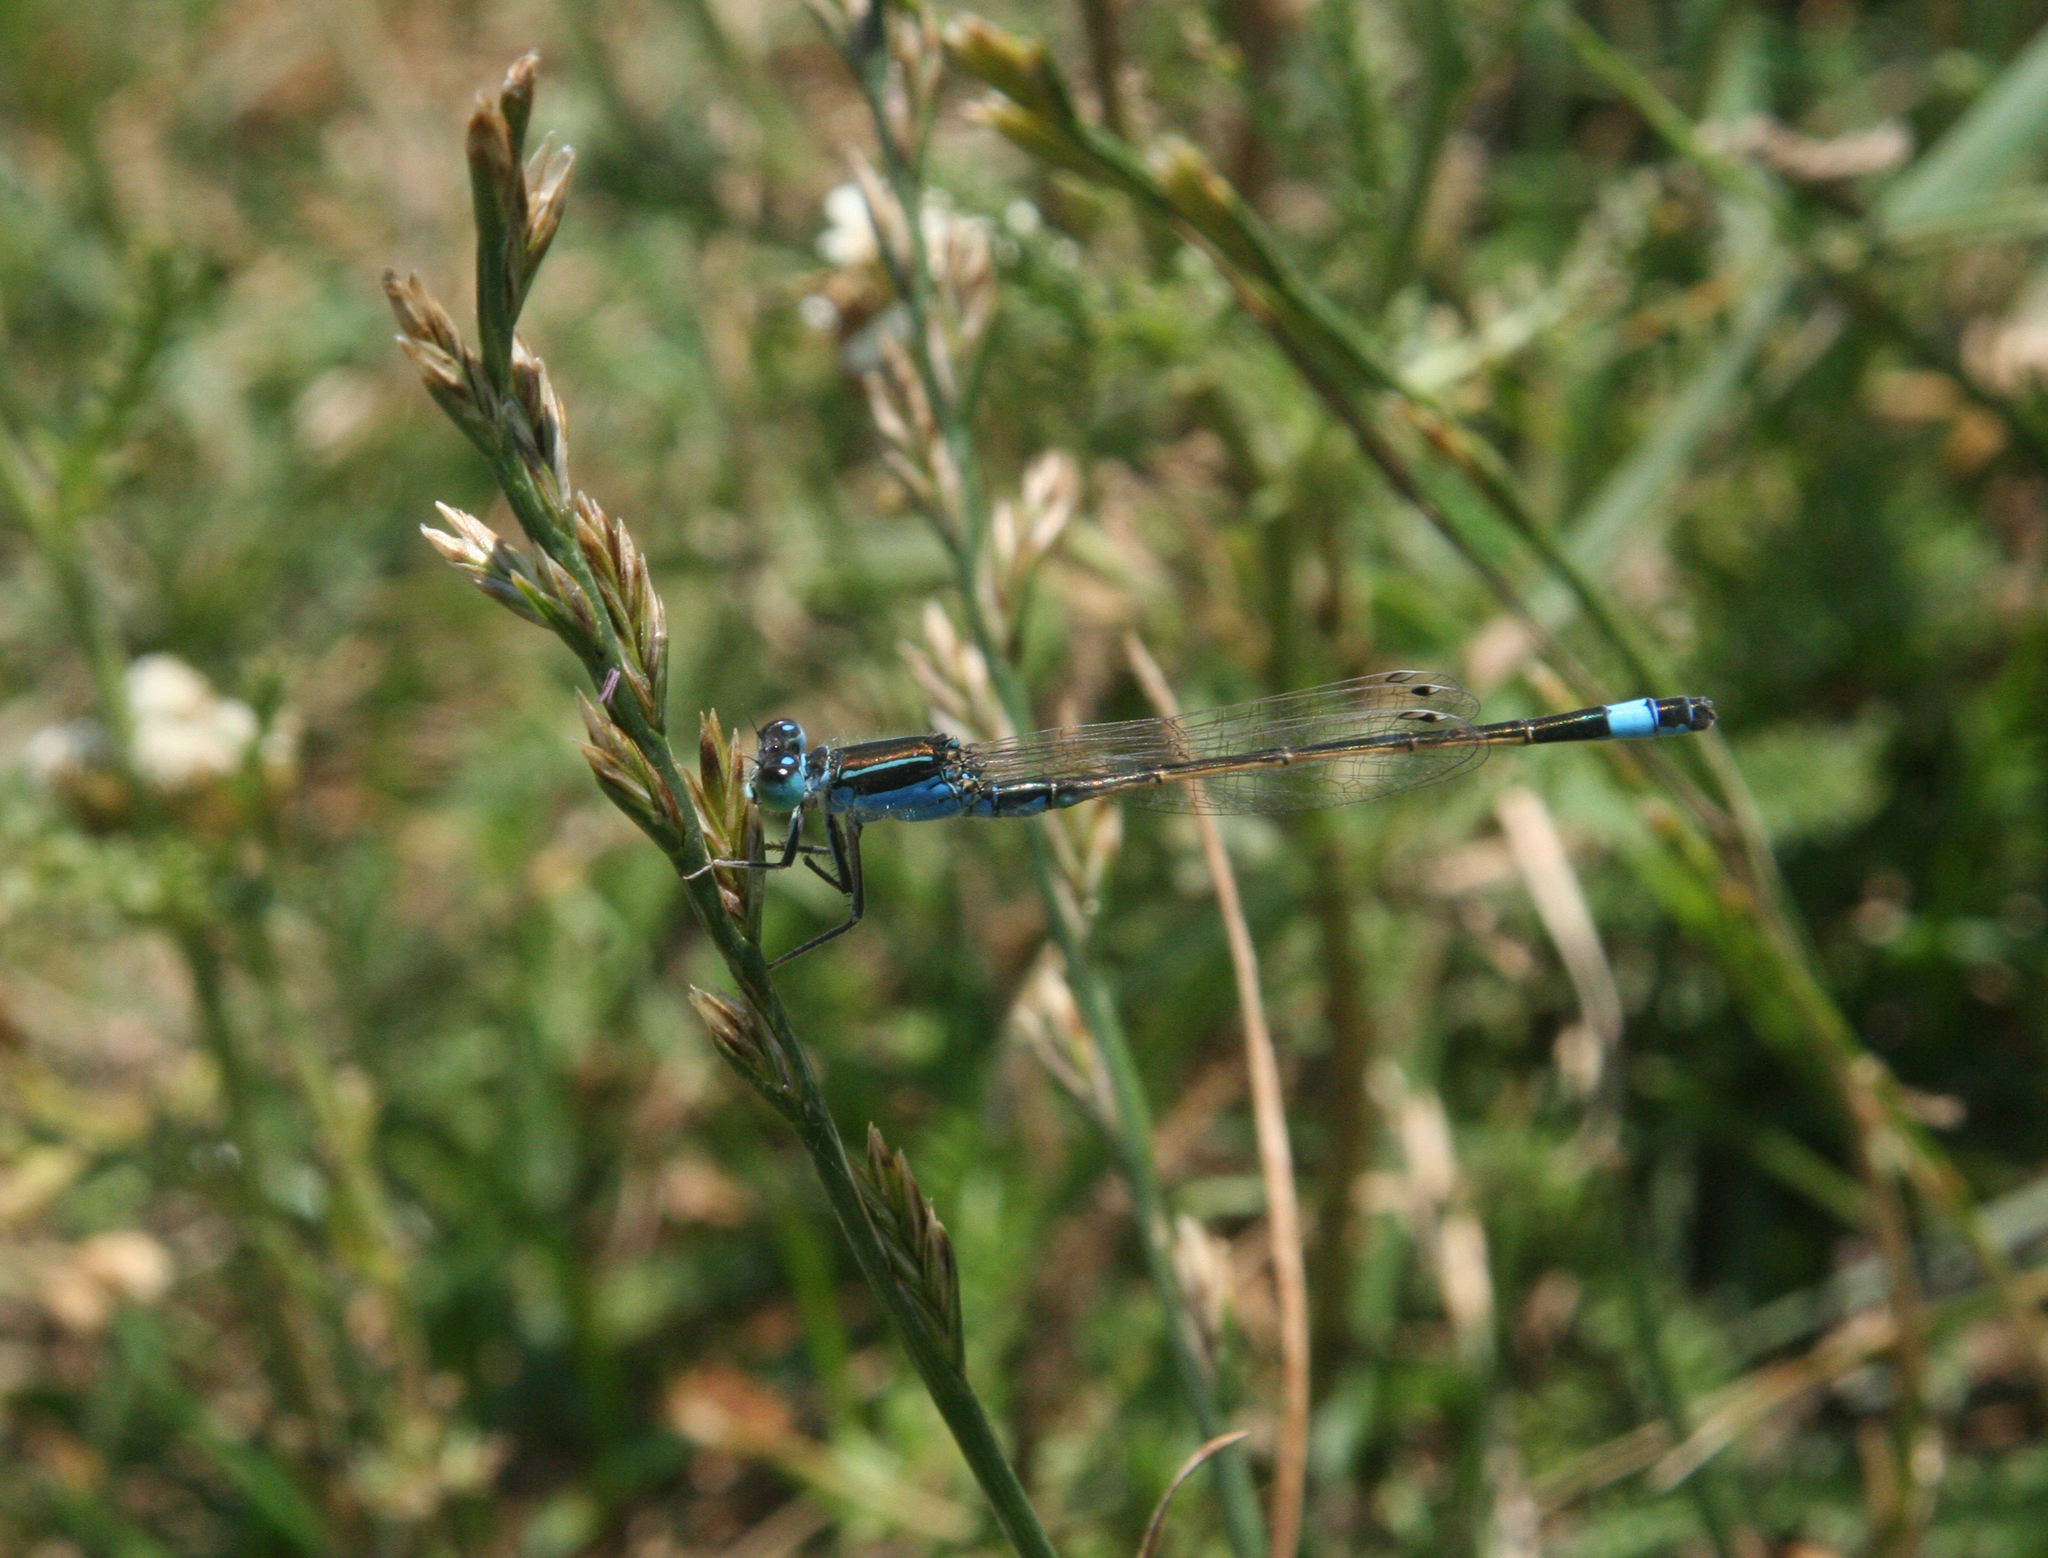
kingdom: Animalia
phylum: Arthropoda
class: Insecta
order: Odonata
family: Coenagrionidae
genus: Ischnura
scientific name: Ischnura fountaineae
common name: Oasis bluetail
